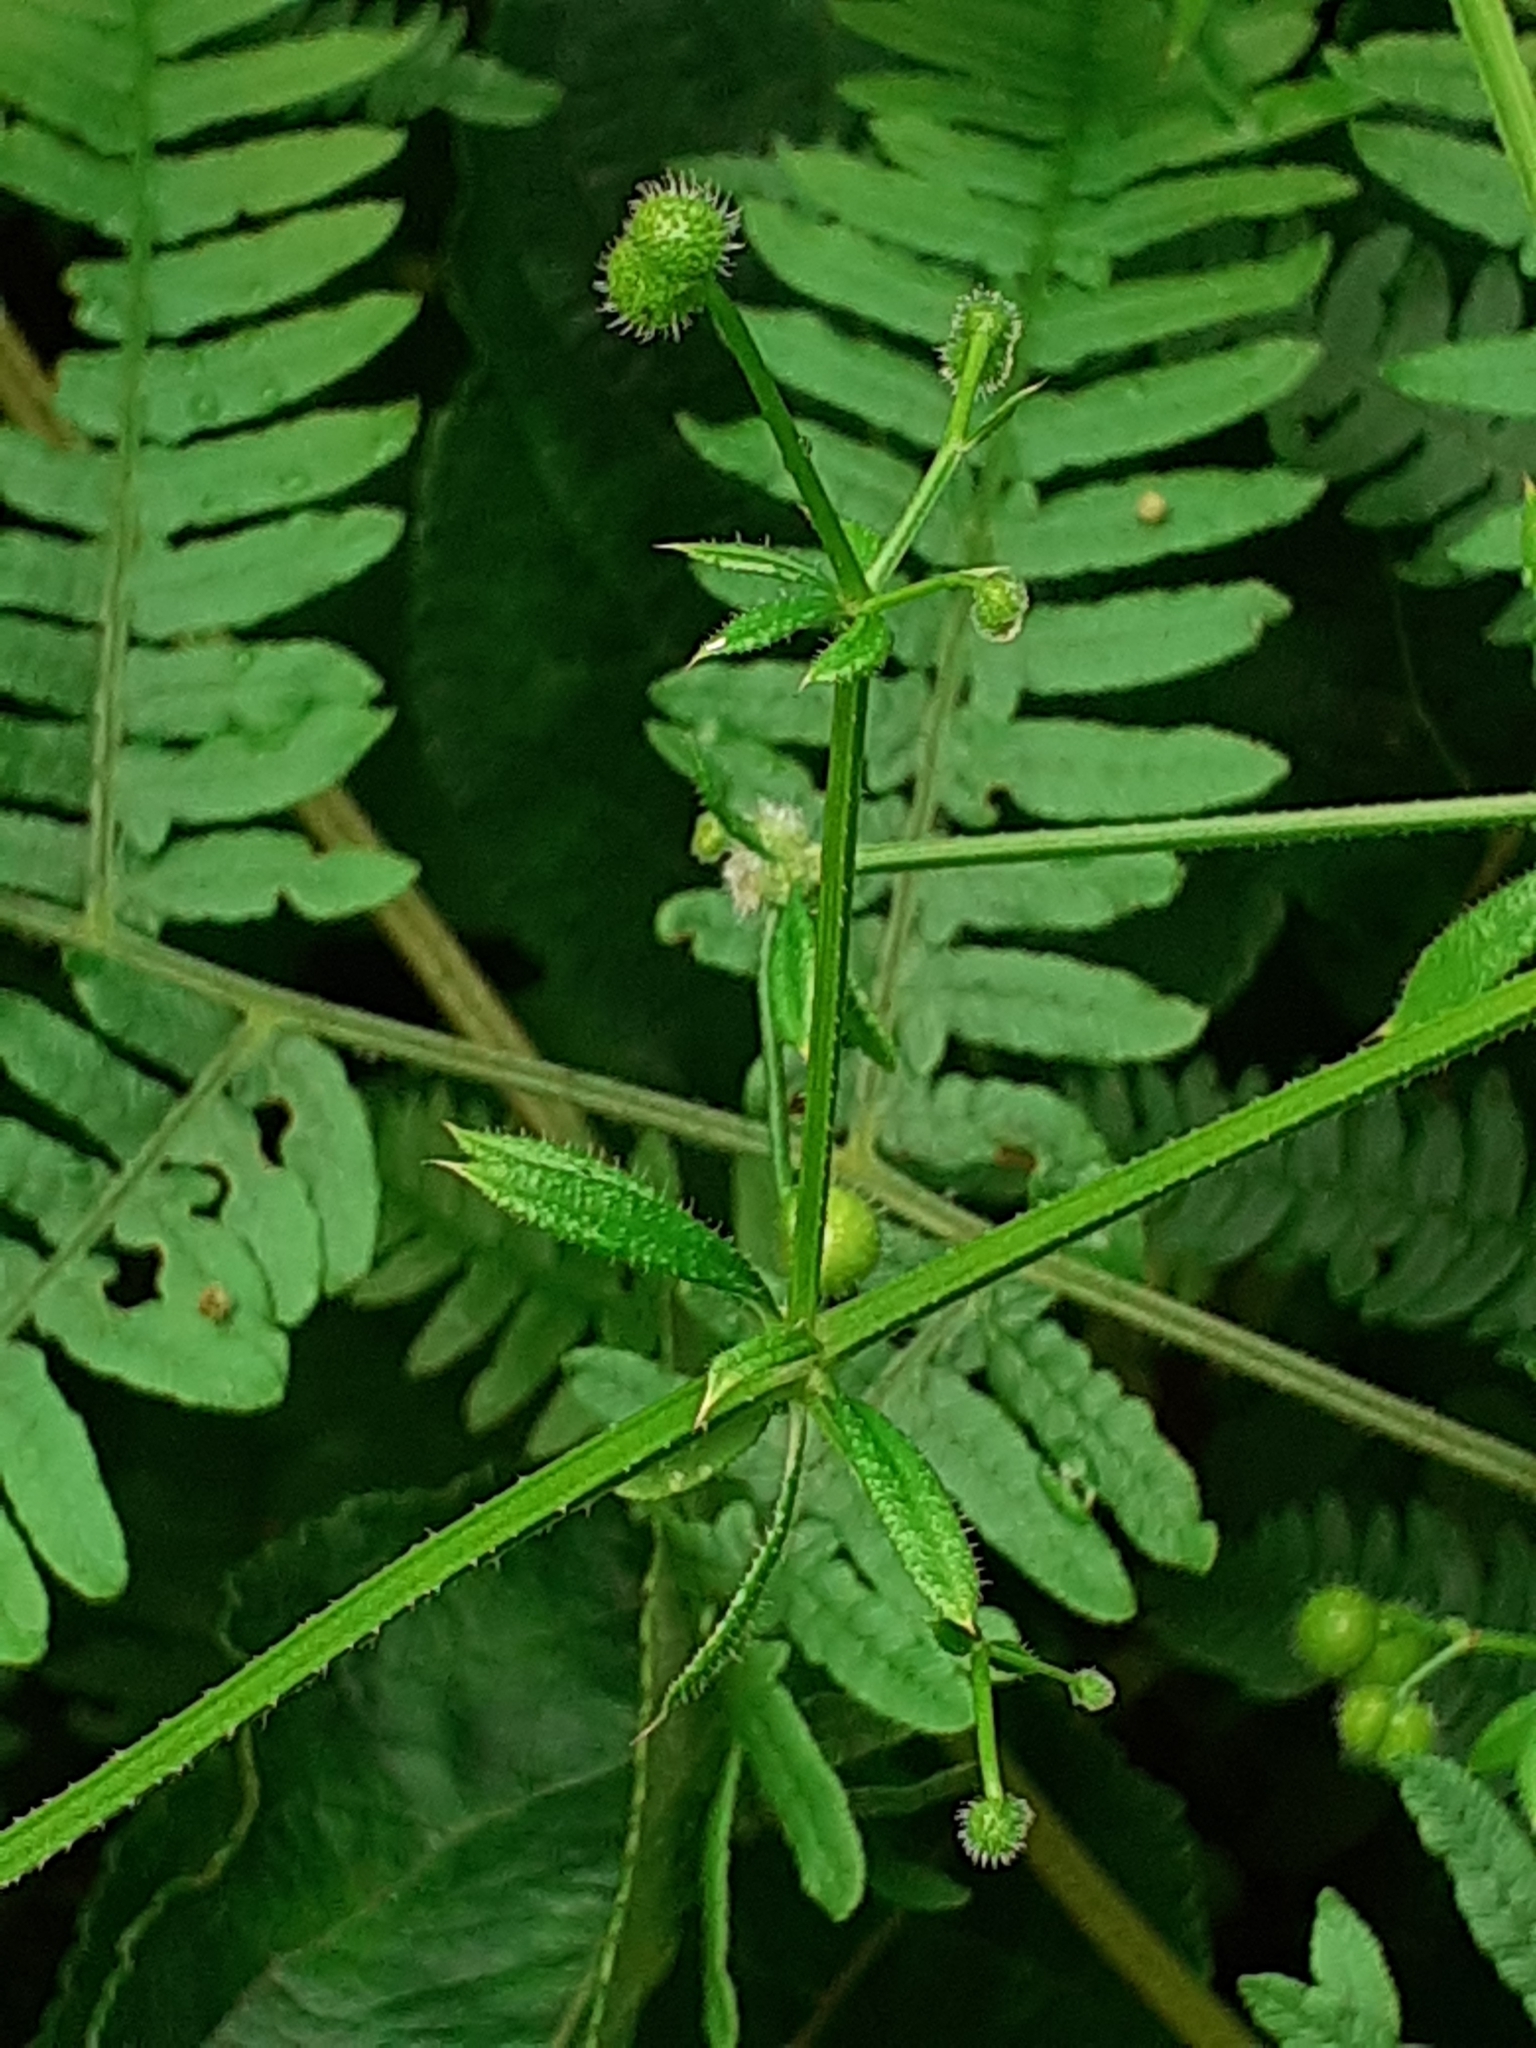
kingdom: Plantae
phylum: Tracheophyta
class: Magnoliopsida
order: Gentianales
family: Rubiaceae
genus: Galium
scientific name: Galium aparine
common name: Cleavers
